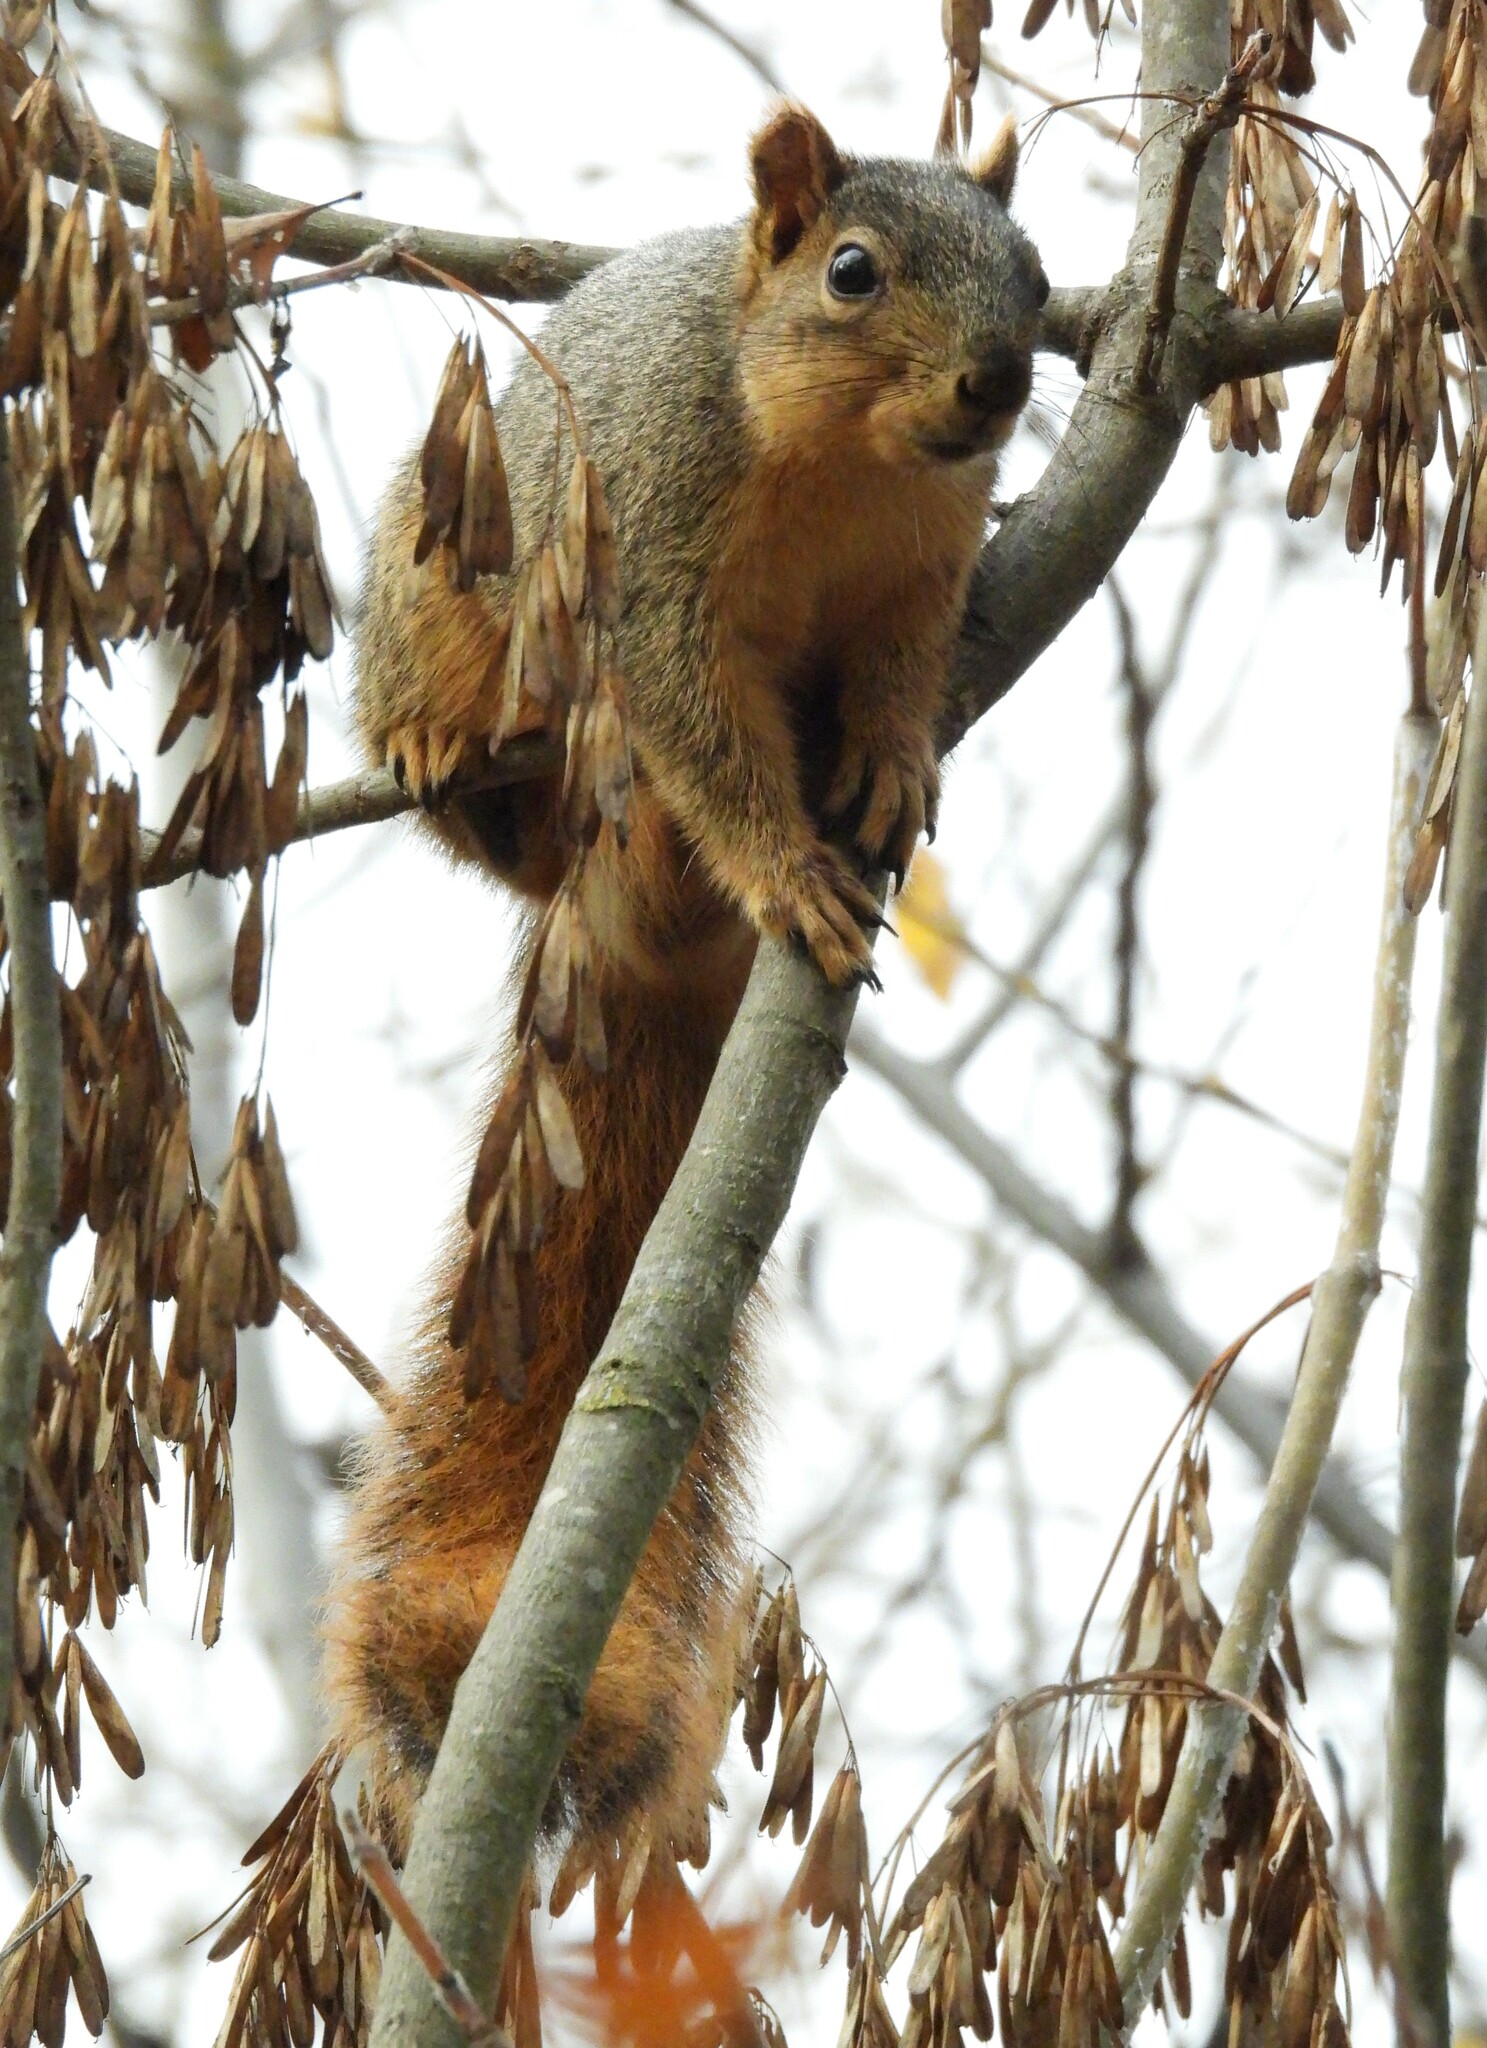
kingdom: Animalia
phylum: Chordata
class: Mammalia
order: Rodentia
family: Sciuridae
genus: Sciurus
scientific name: Sciurus niger
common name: Fox squirrel
